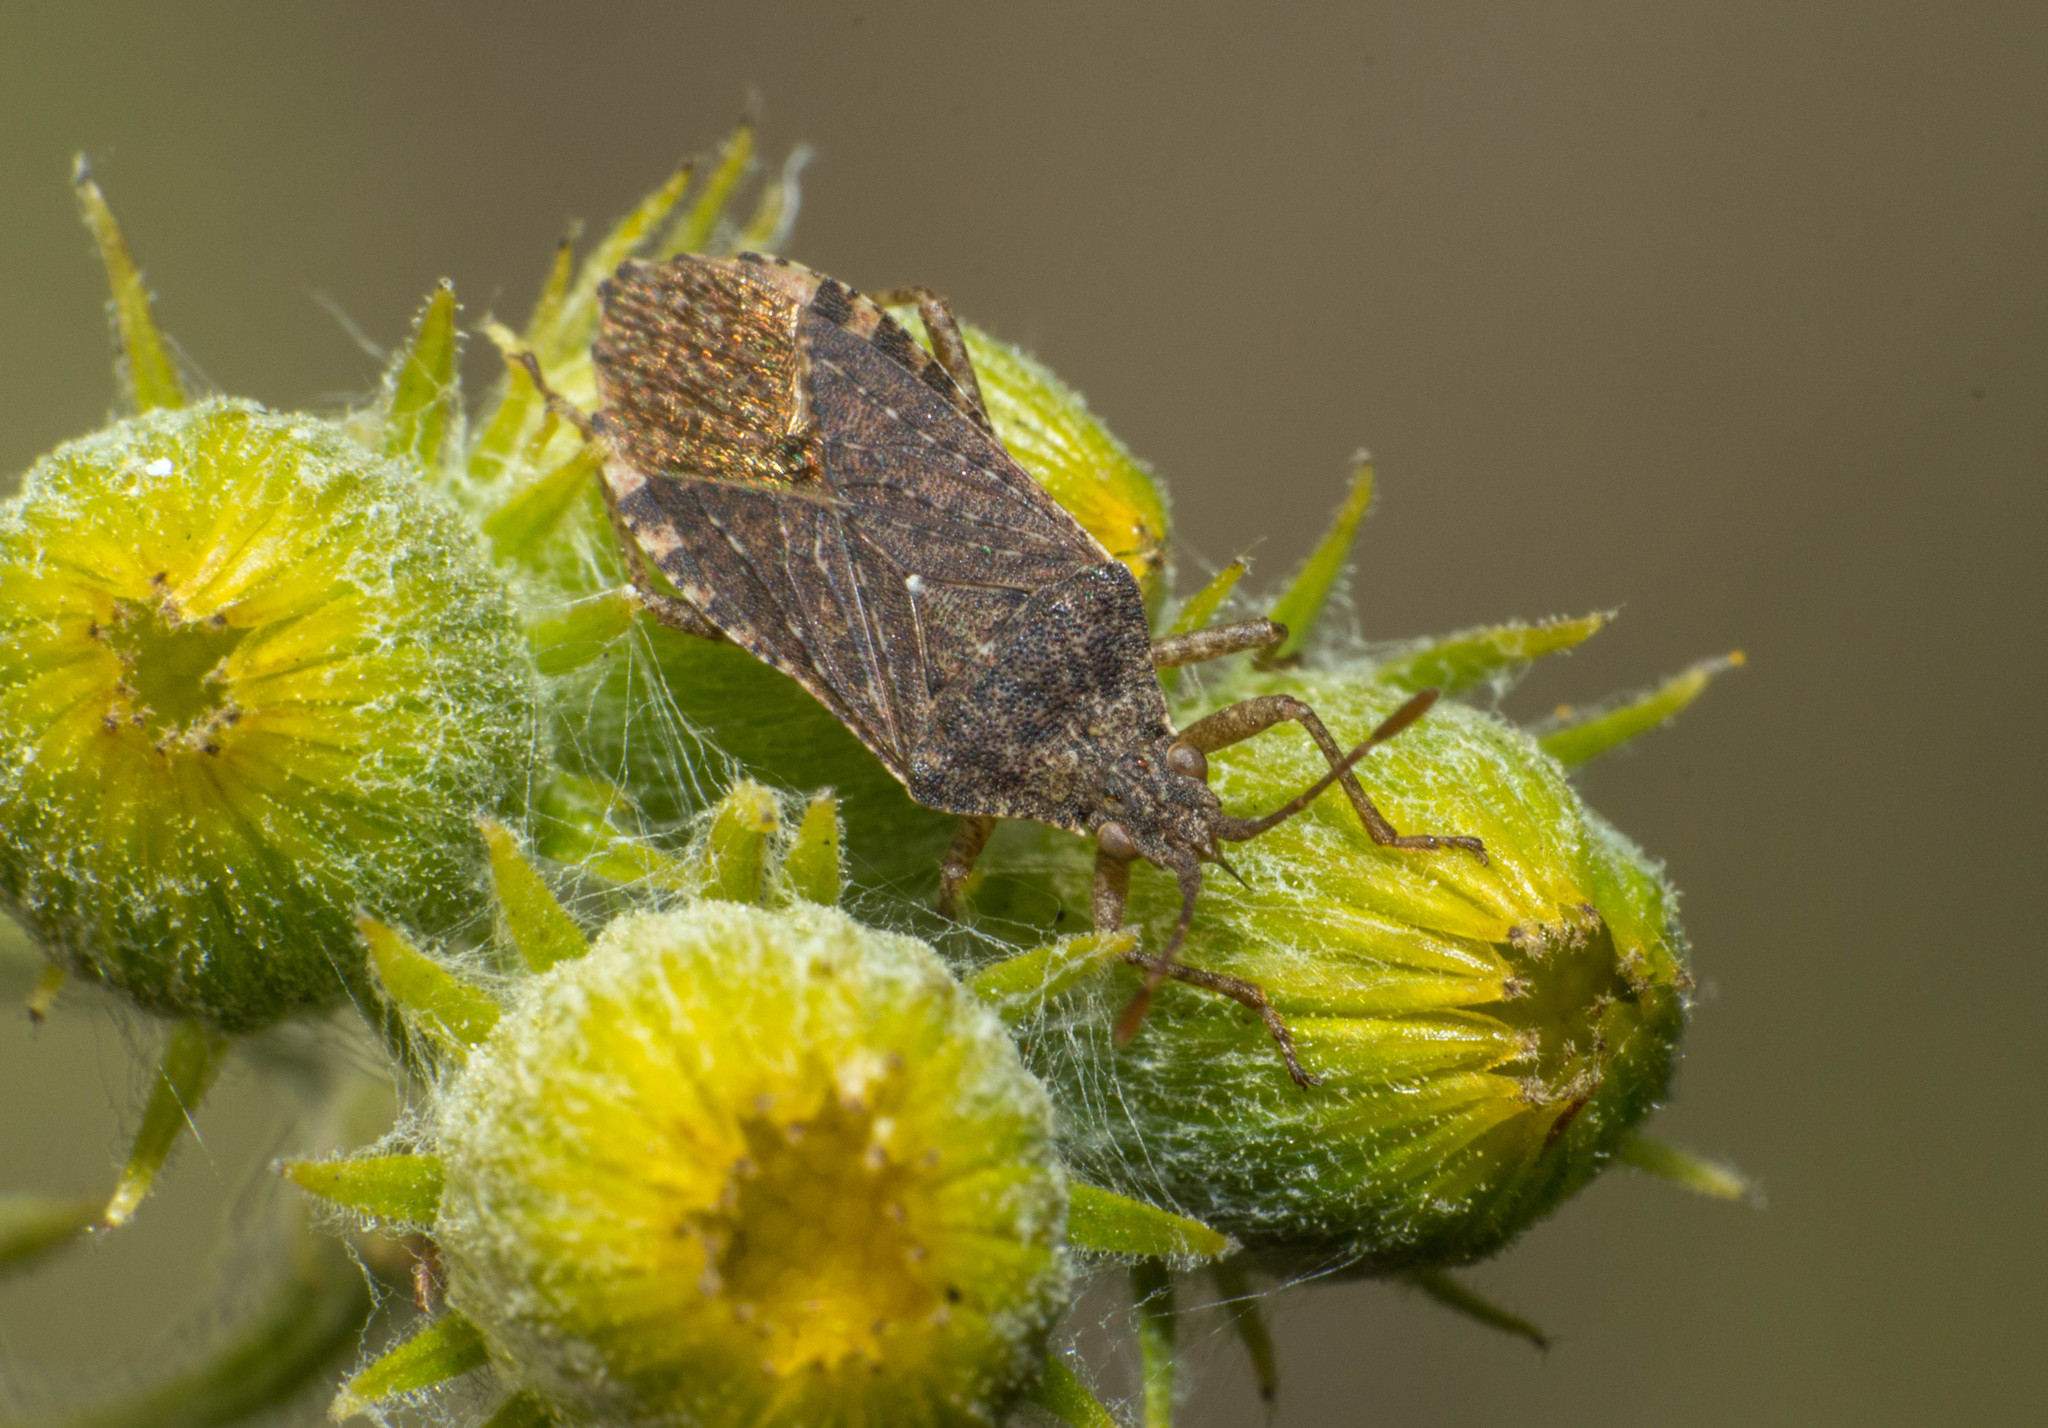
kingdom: Animalia
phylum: Arthropoda
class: Insecta
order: Hemiptera
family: Coreidae
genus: Althos
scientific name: Althos obscurator
